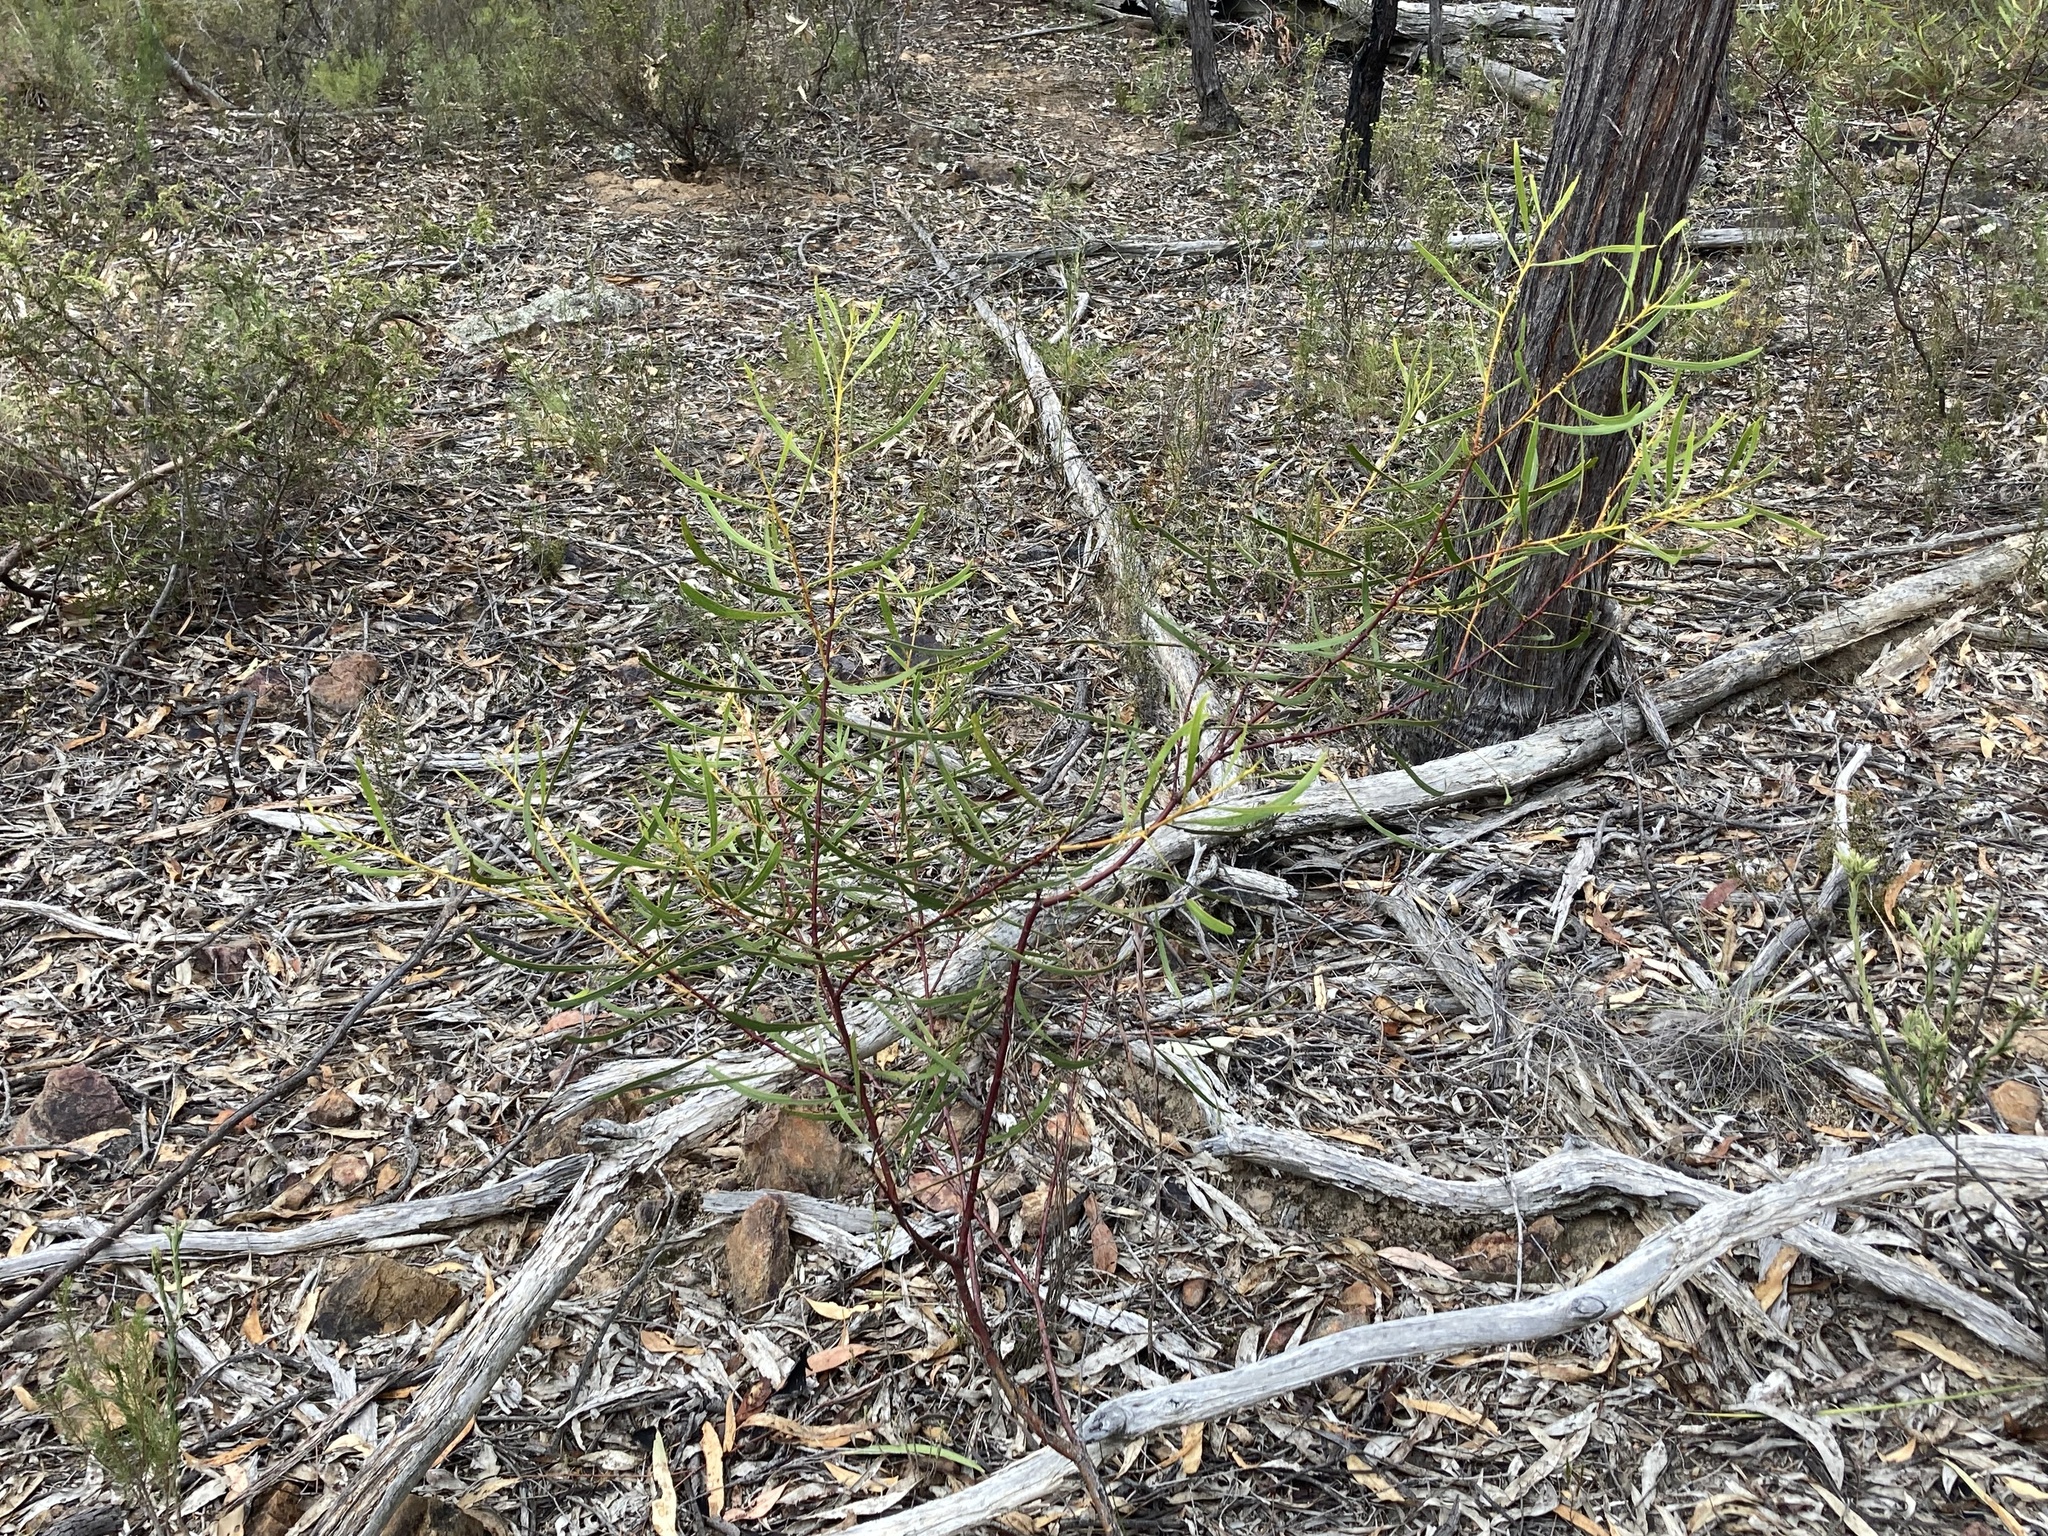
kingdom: Plantae
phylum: Tracheophyta
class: Magnoliopsida
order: Fabales
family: Fabaceae
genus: Acacia
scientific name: Acacia gladiiformis
